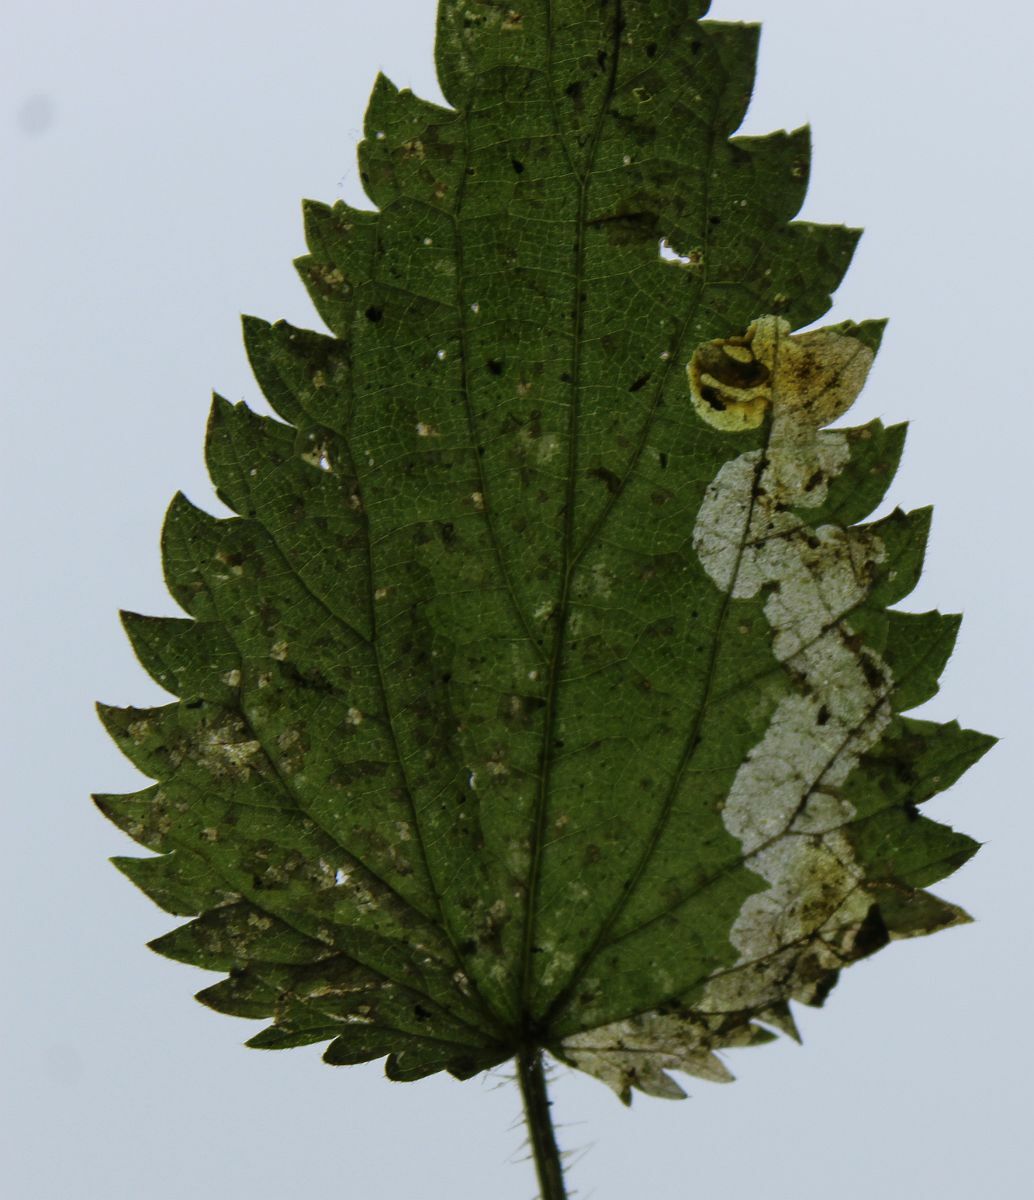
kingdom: Animalia
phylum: Arthropoda
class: Insecta
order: Diptera
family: Agromyzidae
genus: Agromyza
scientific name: Agromyza anthracina
